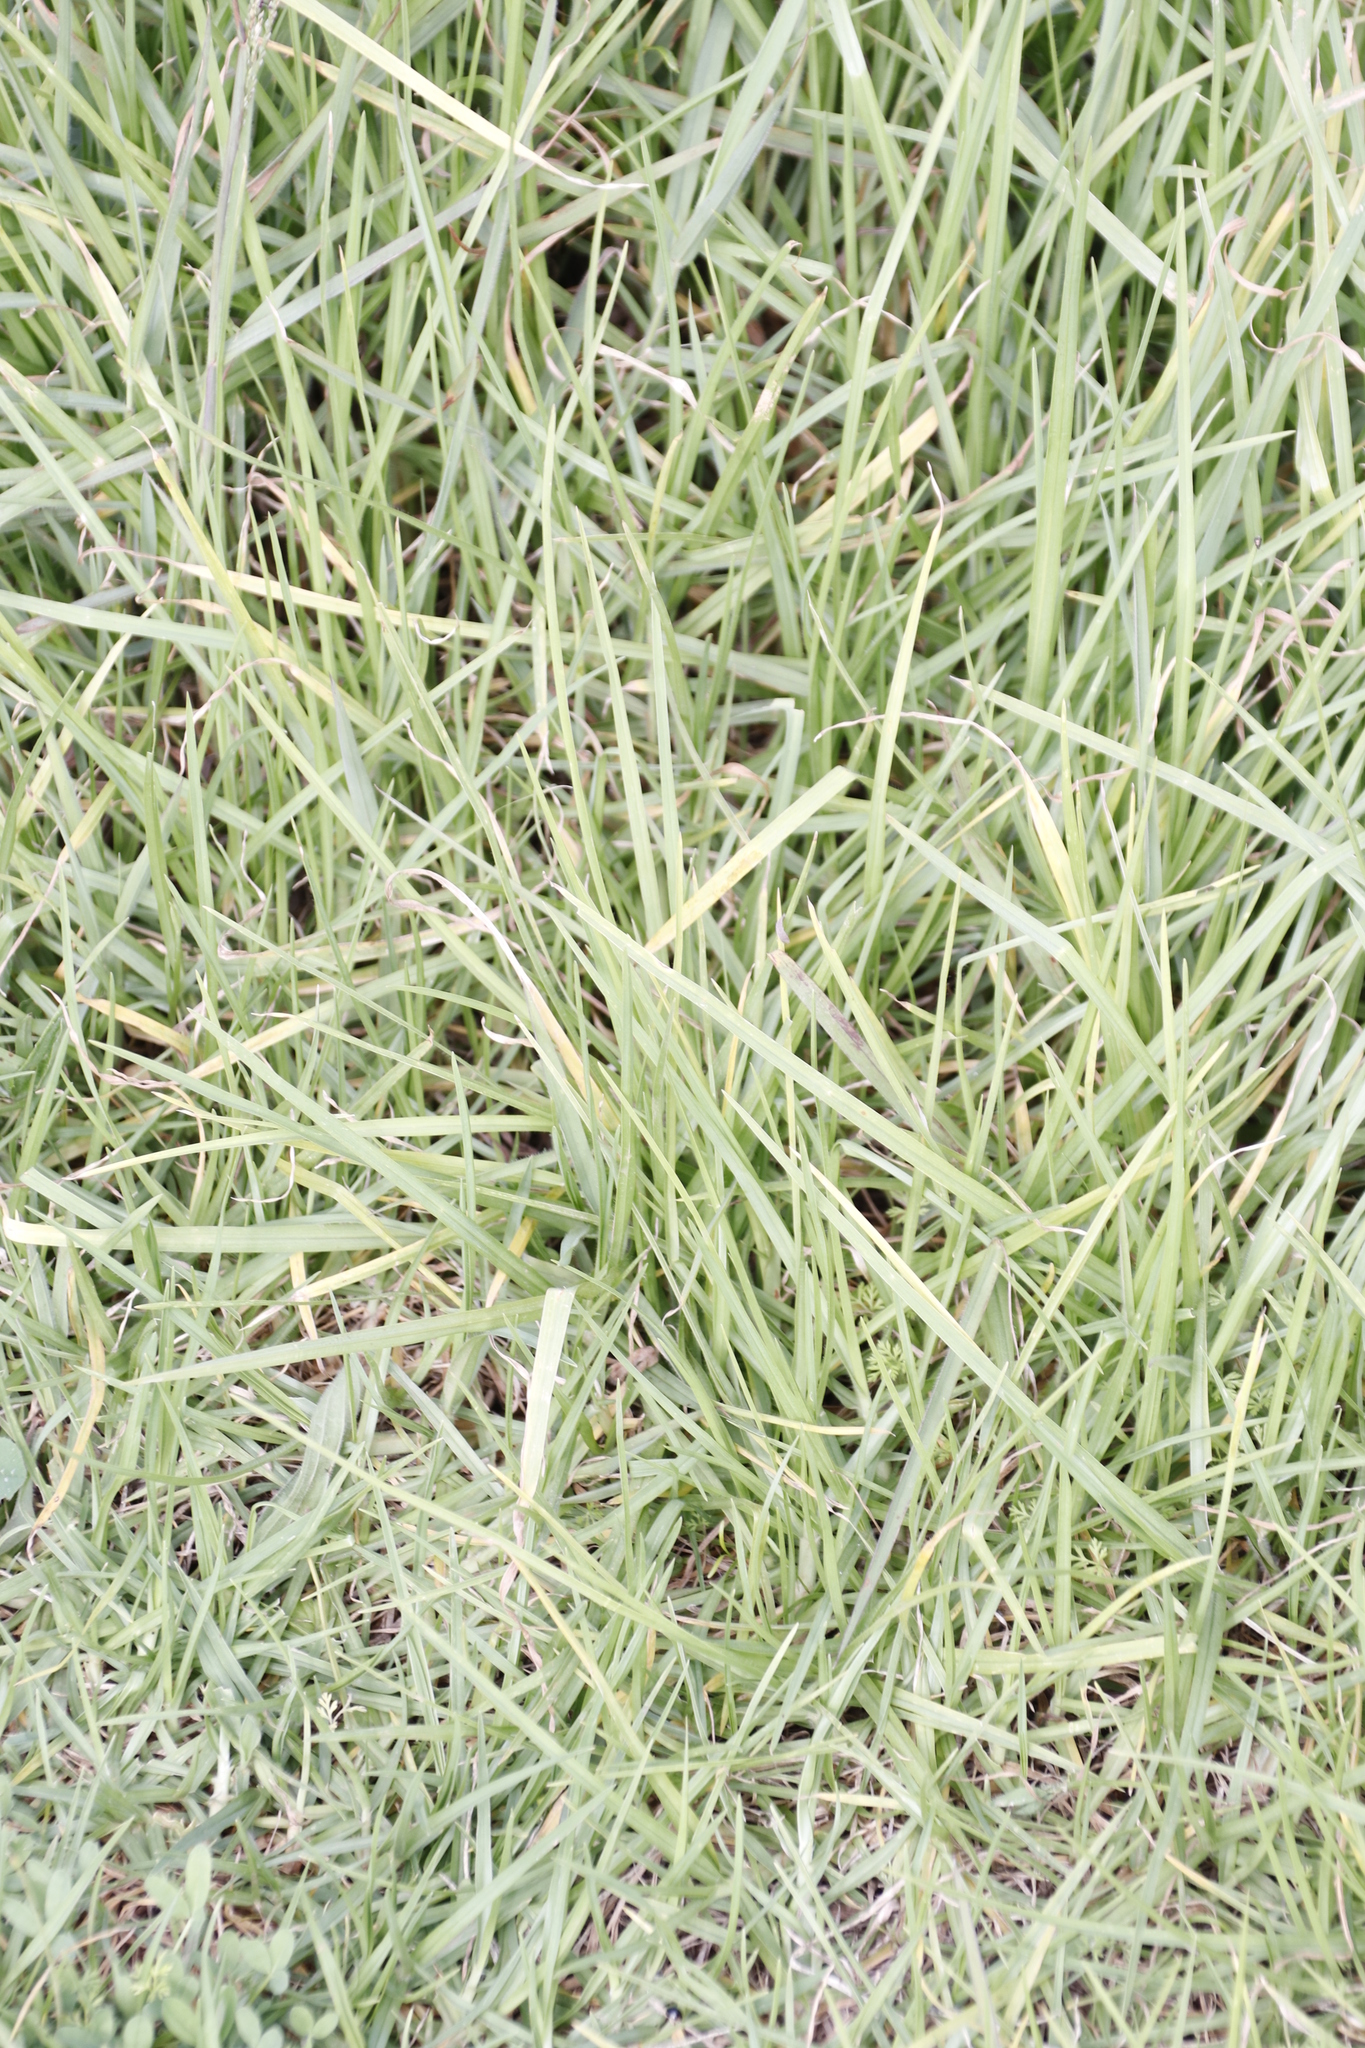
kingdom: Plantae
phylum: Tracheophyta
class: Liliopsida
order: Poales
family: Poaceae
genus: Cenchrus
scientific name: Cenchrus clandestinus
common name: Kikuyugrass
